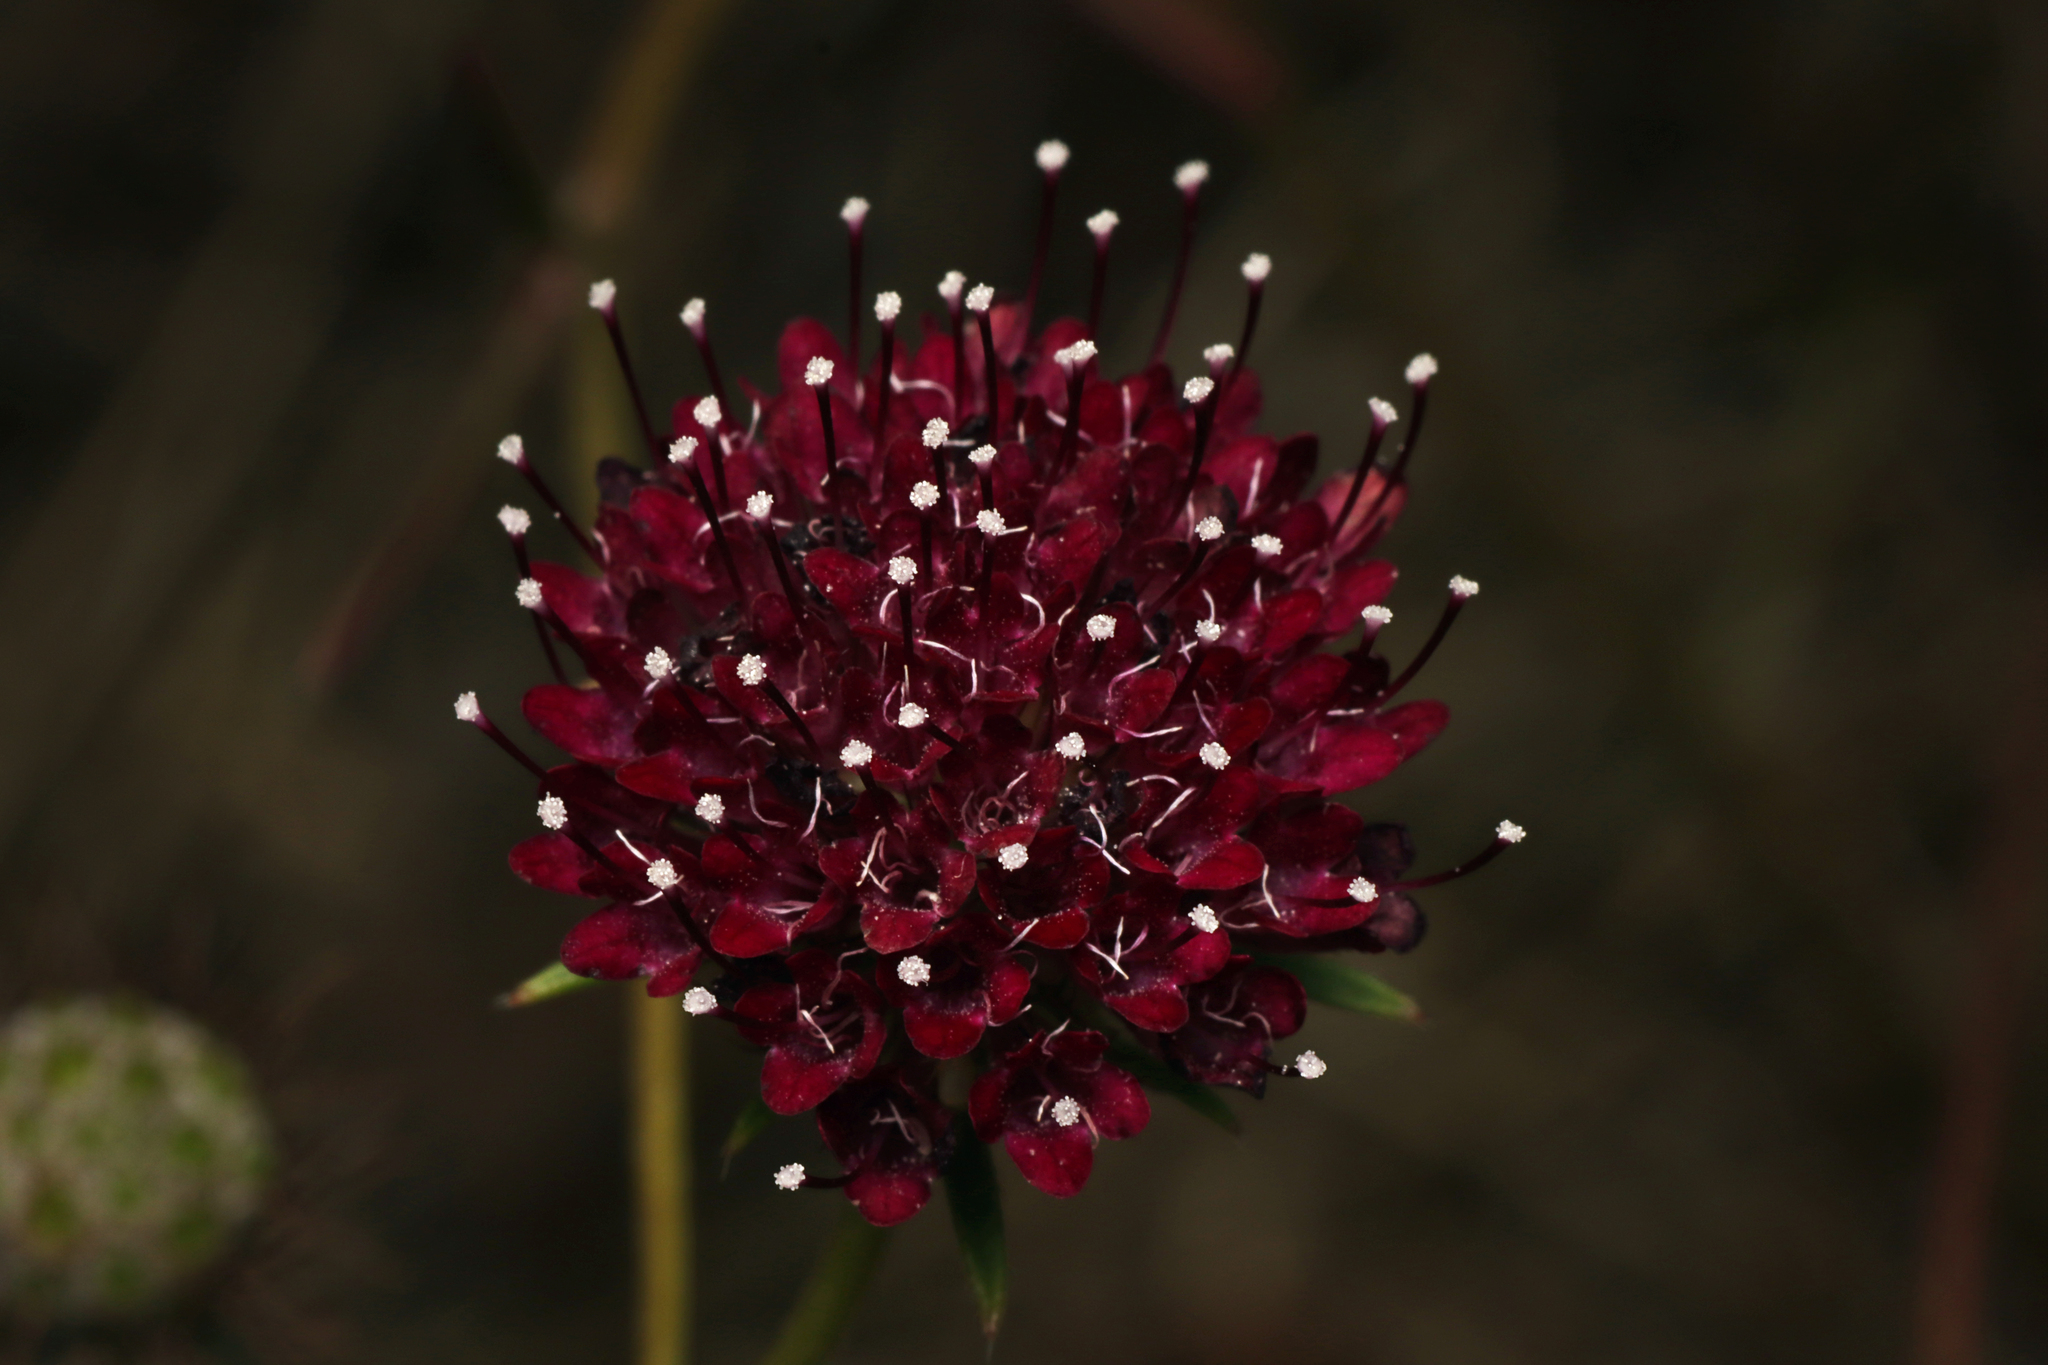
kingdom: Plantae
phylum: Tracheophyta
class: Magnoliopsida
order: Dipsacales
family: Caprifoliaceae
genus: Sixalix
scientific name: Sixalix atropurpurea
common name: Sweet scabious
